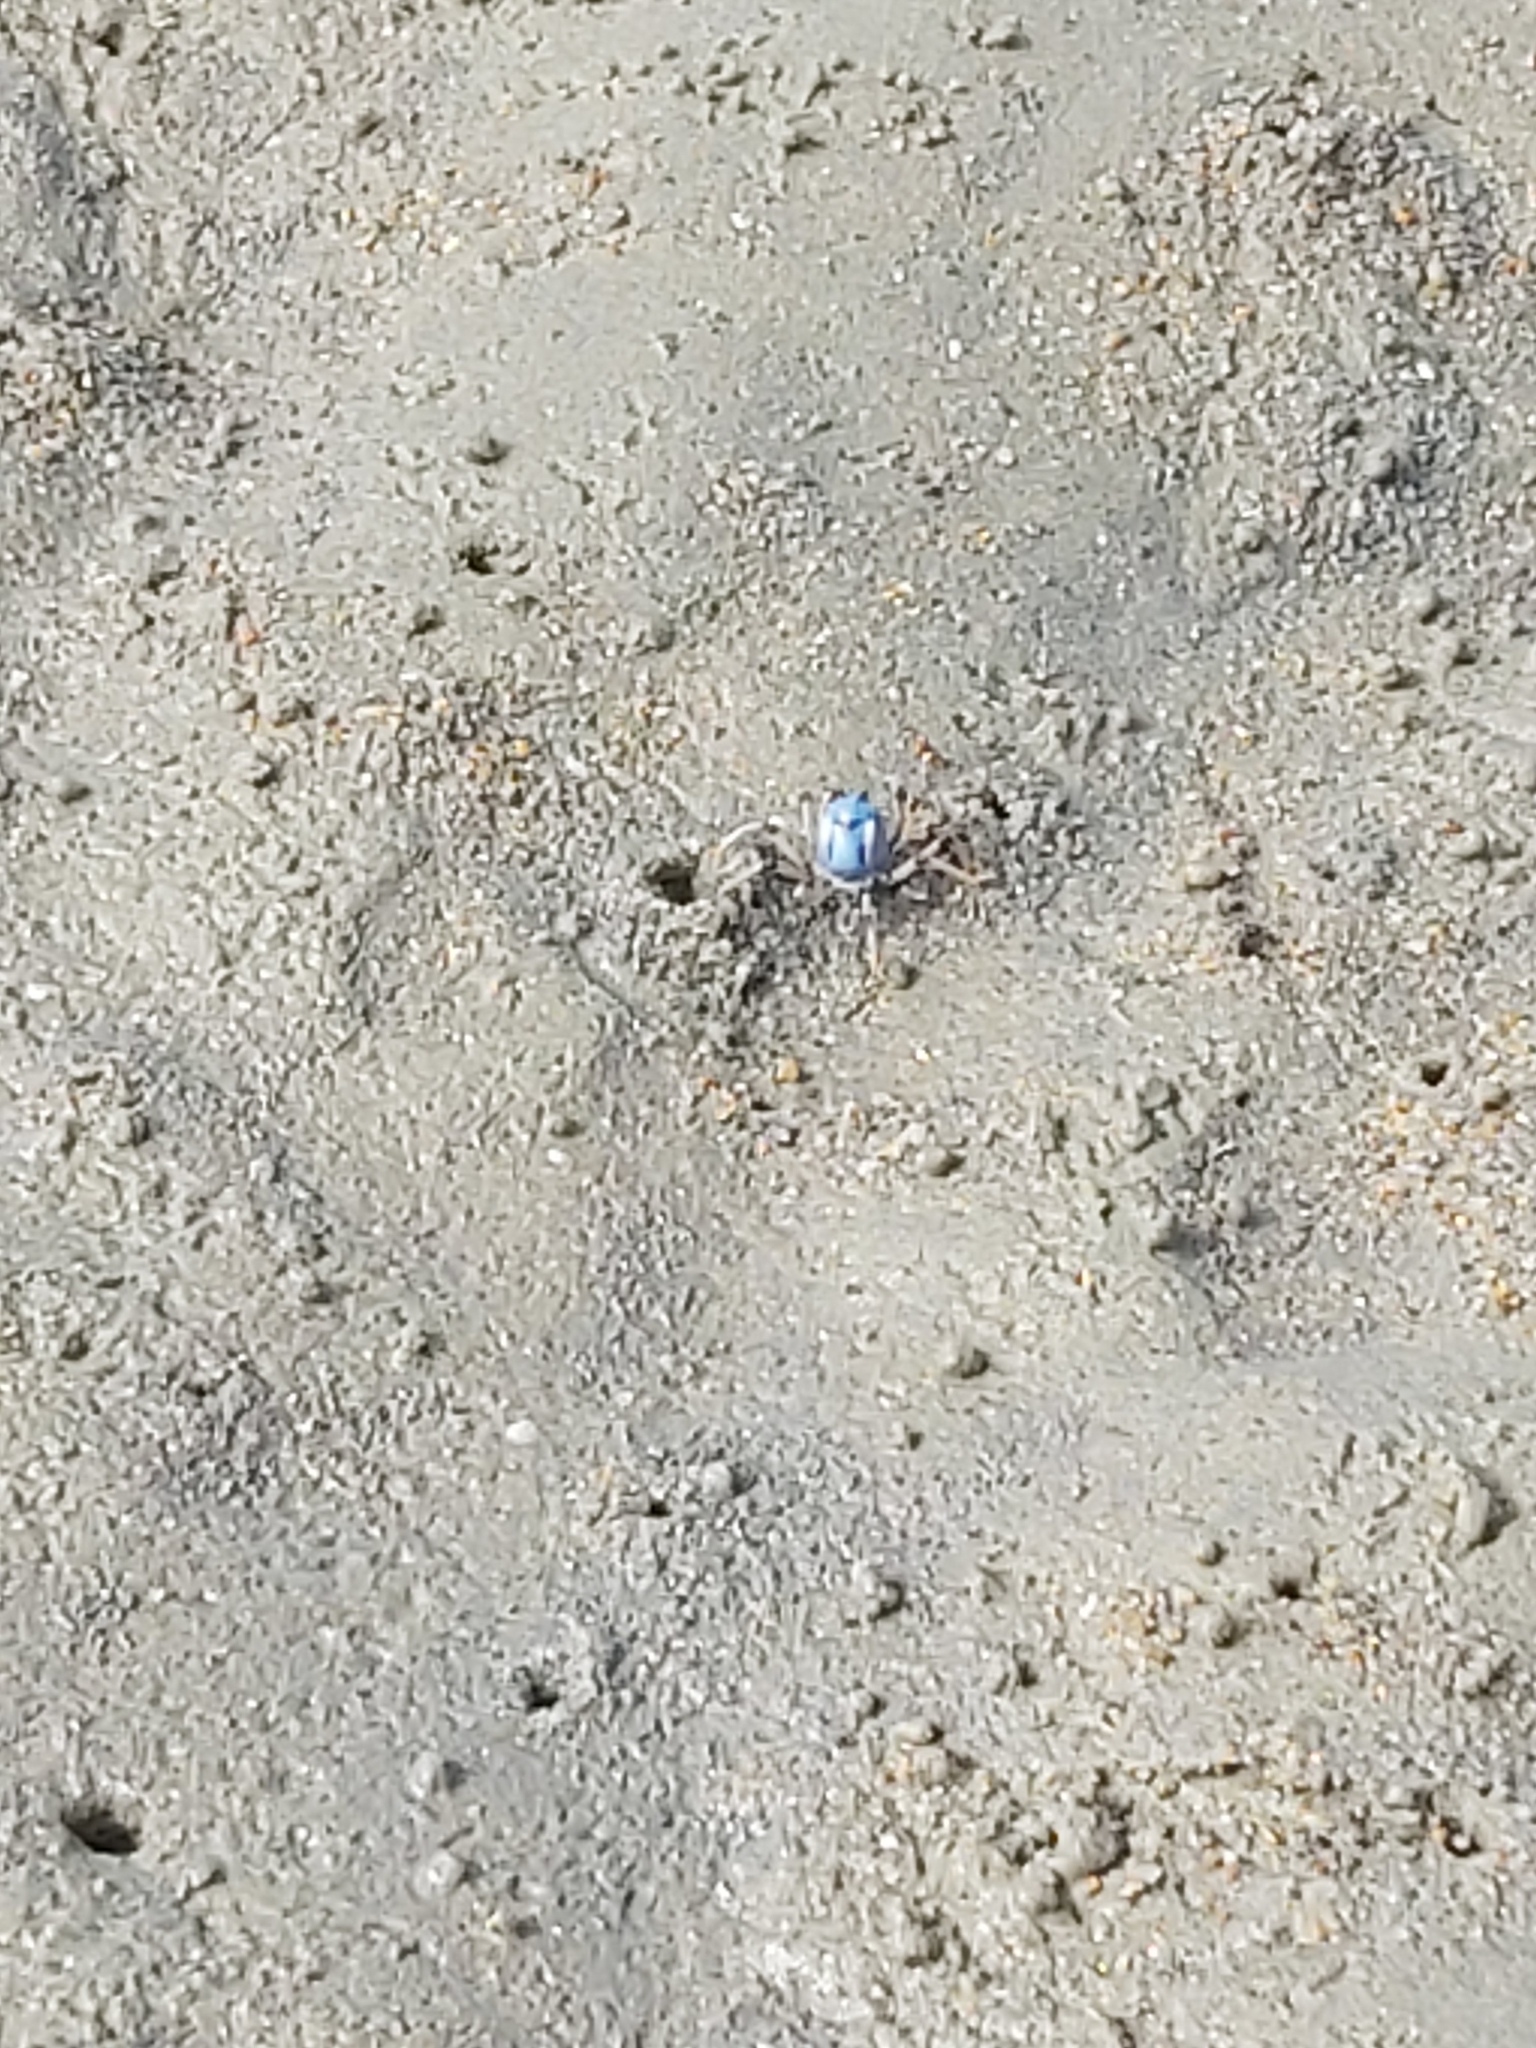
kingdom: Animalia
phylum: Arthropoda
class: Malacostraca
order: Decapoda
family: Mictyridae
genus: Mictyris
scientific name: Mictyris longicarpus
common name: Light-blue soldier crab
